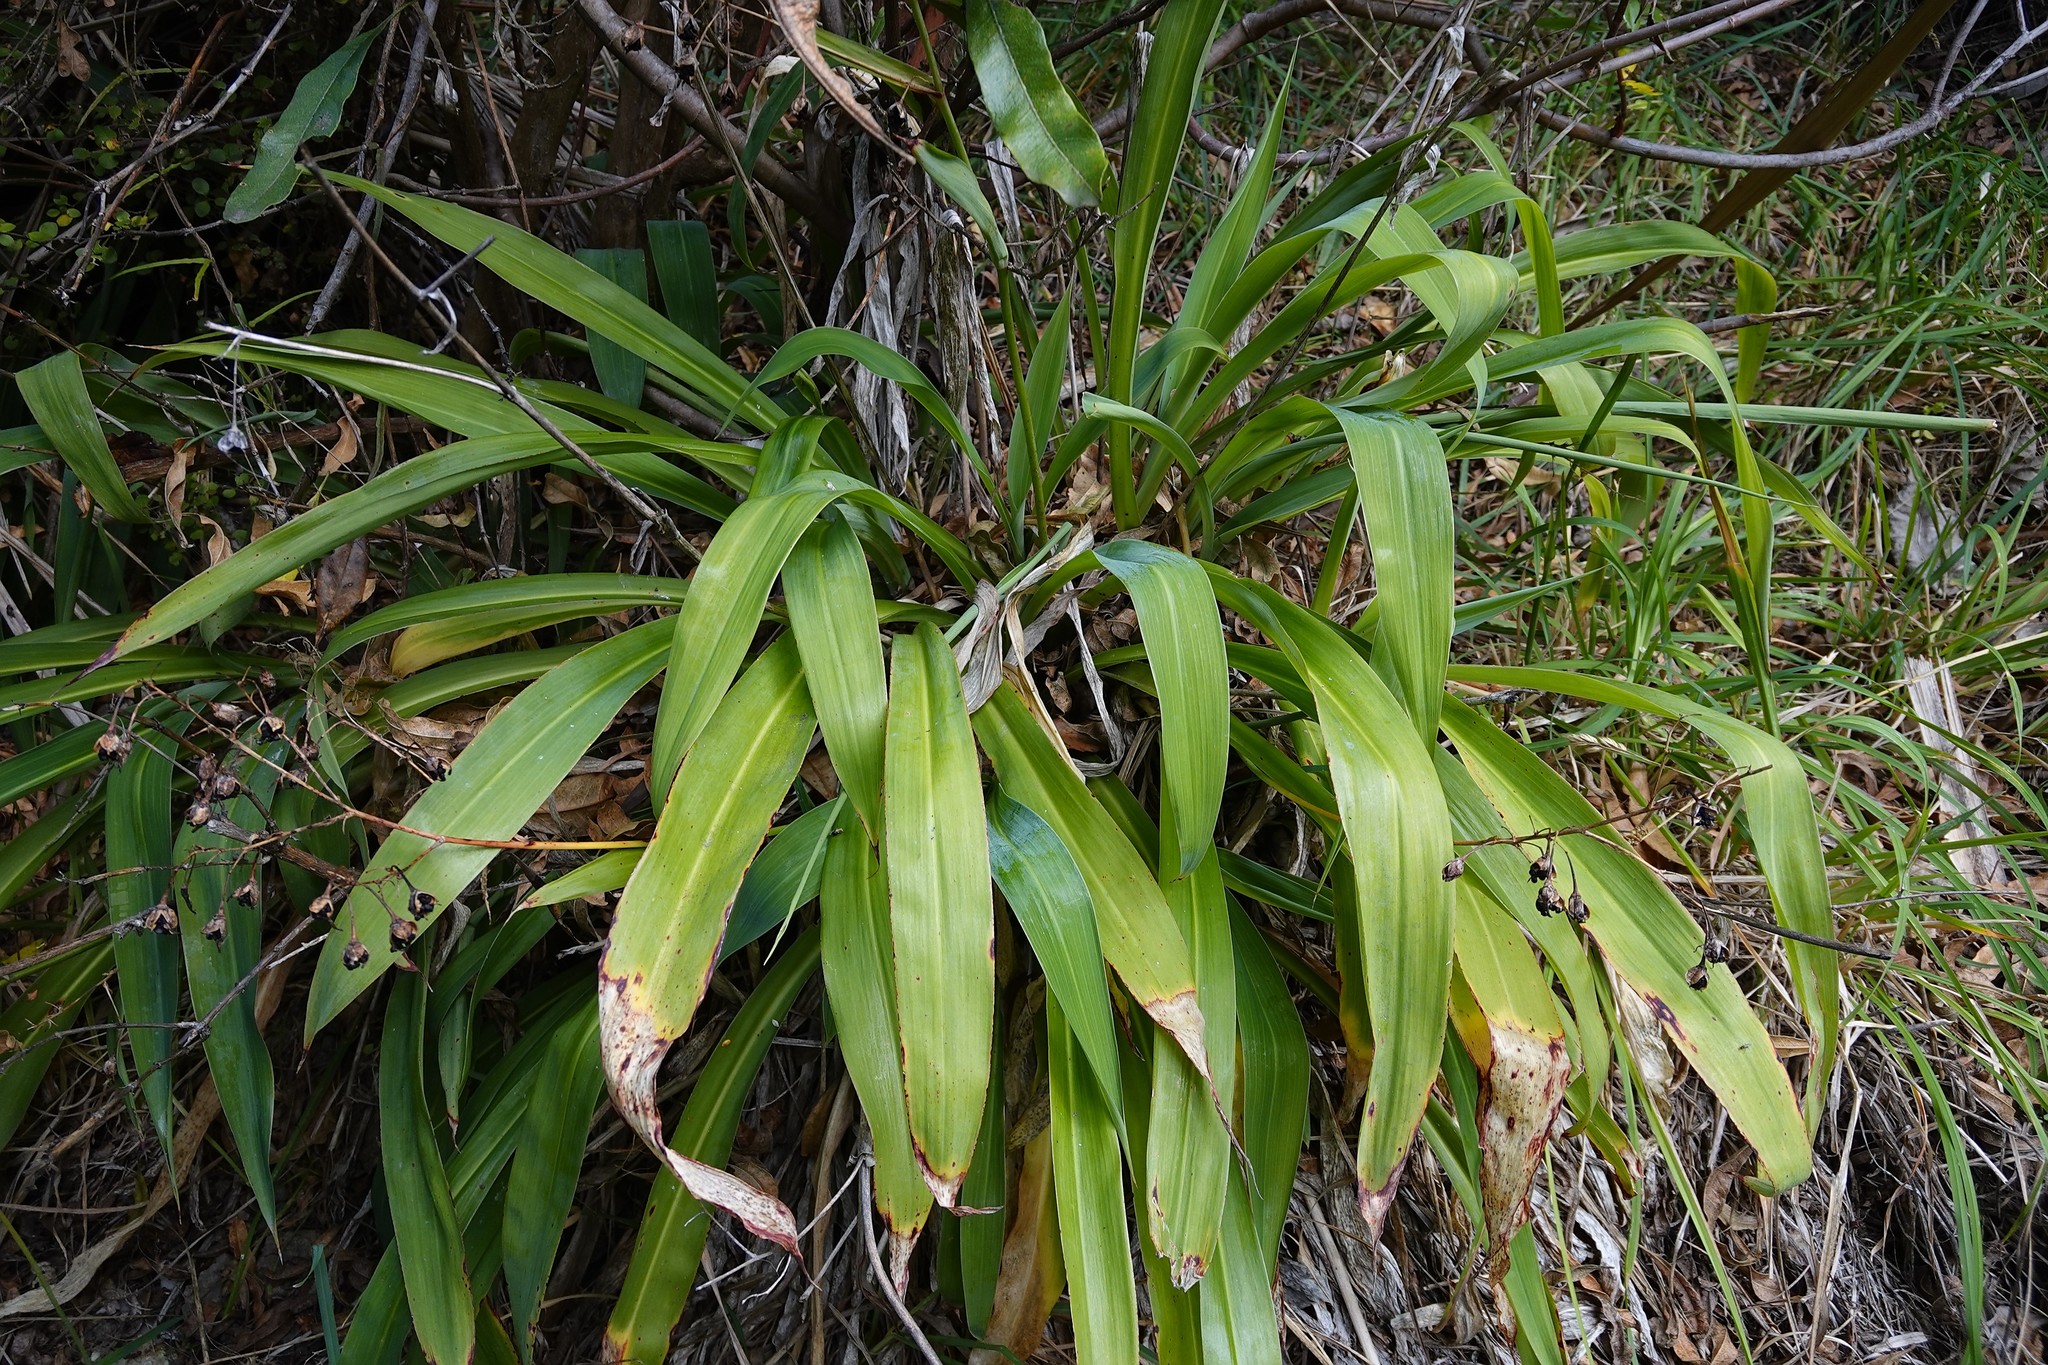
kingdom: Plantae
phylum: Tracheophyta
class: Liliopsida
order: Asparagales
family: Asparagaceae
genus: Arthropodium
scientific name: Arthropodium cirratum
